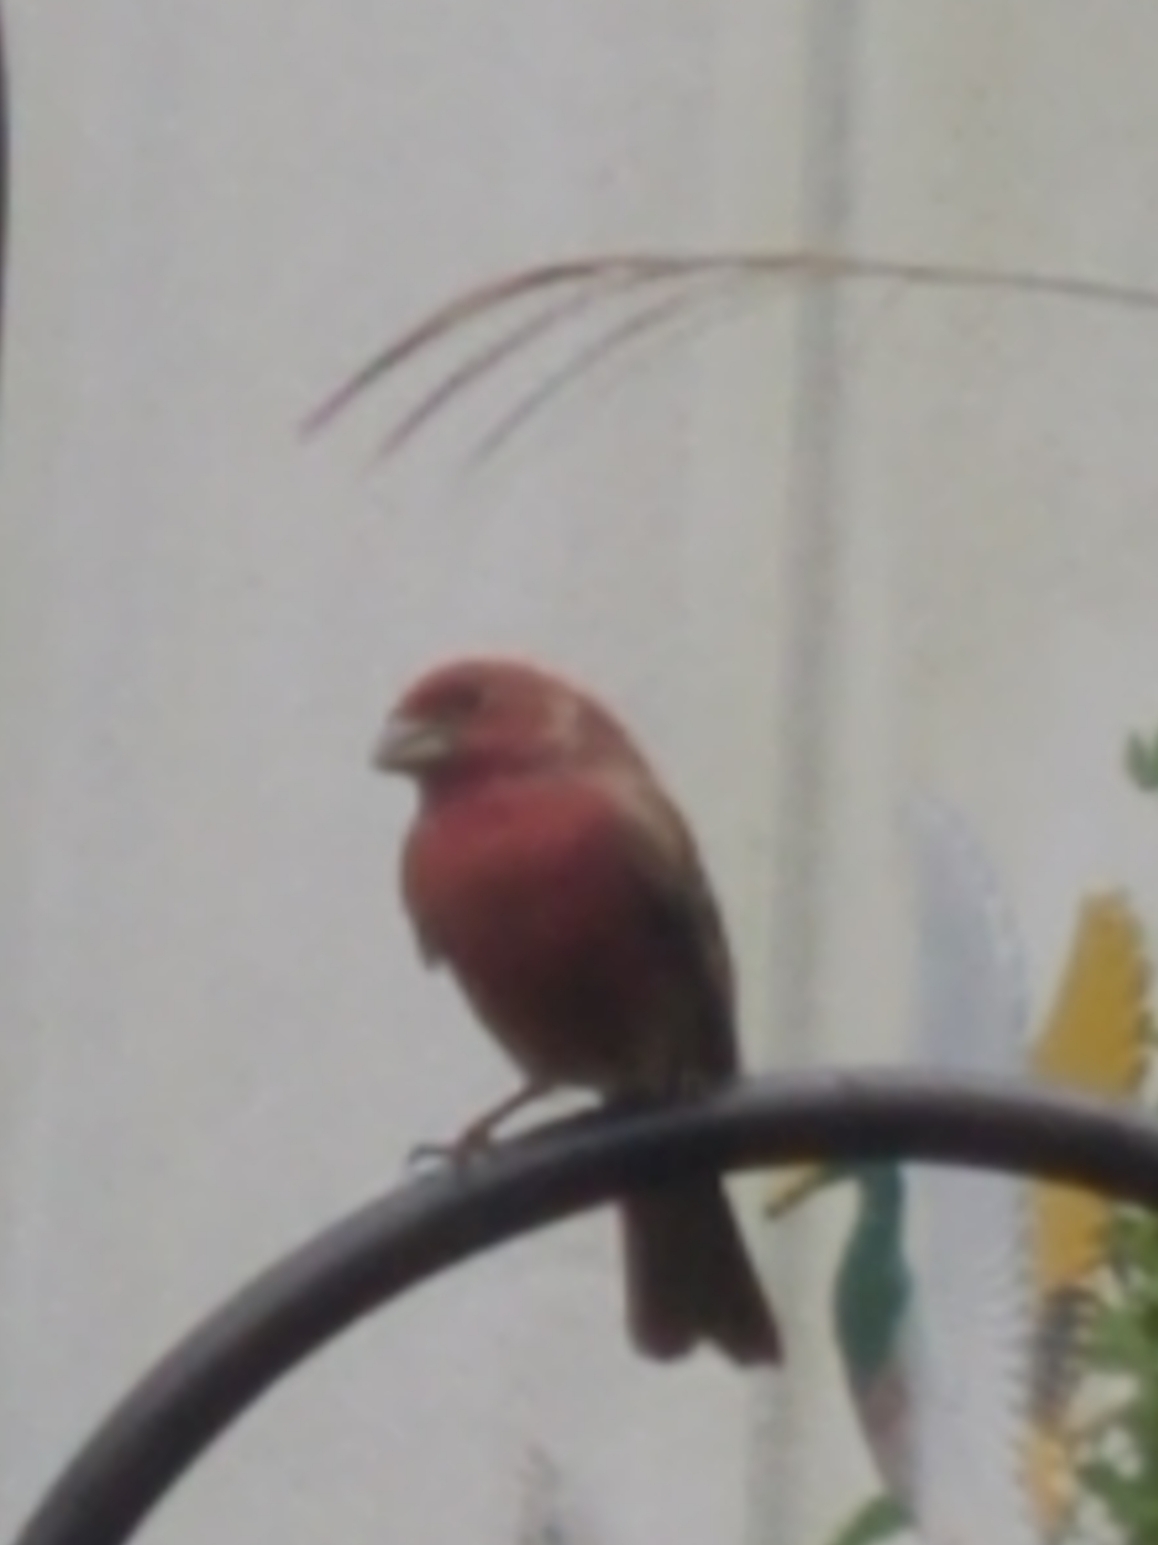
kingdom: Animalia
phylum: Chordata
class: Aves
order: Passeriformes
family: Fringillidae
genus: Haemorhous
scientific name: Haemorhous mexicanus
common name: House finch
